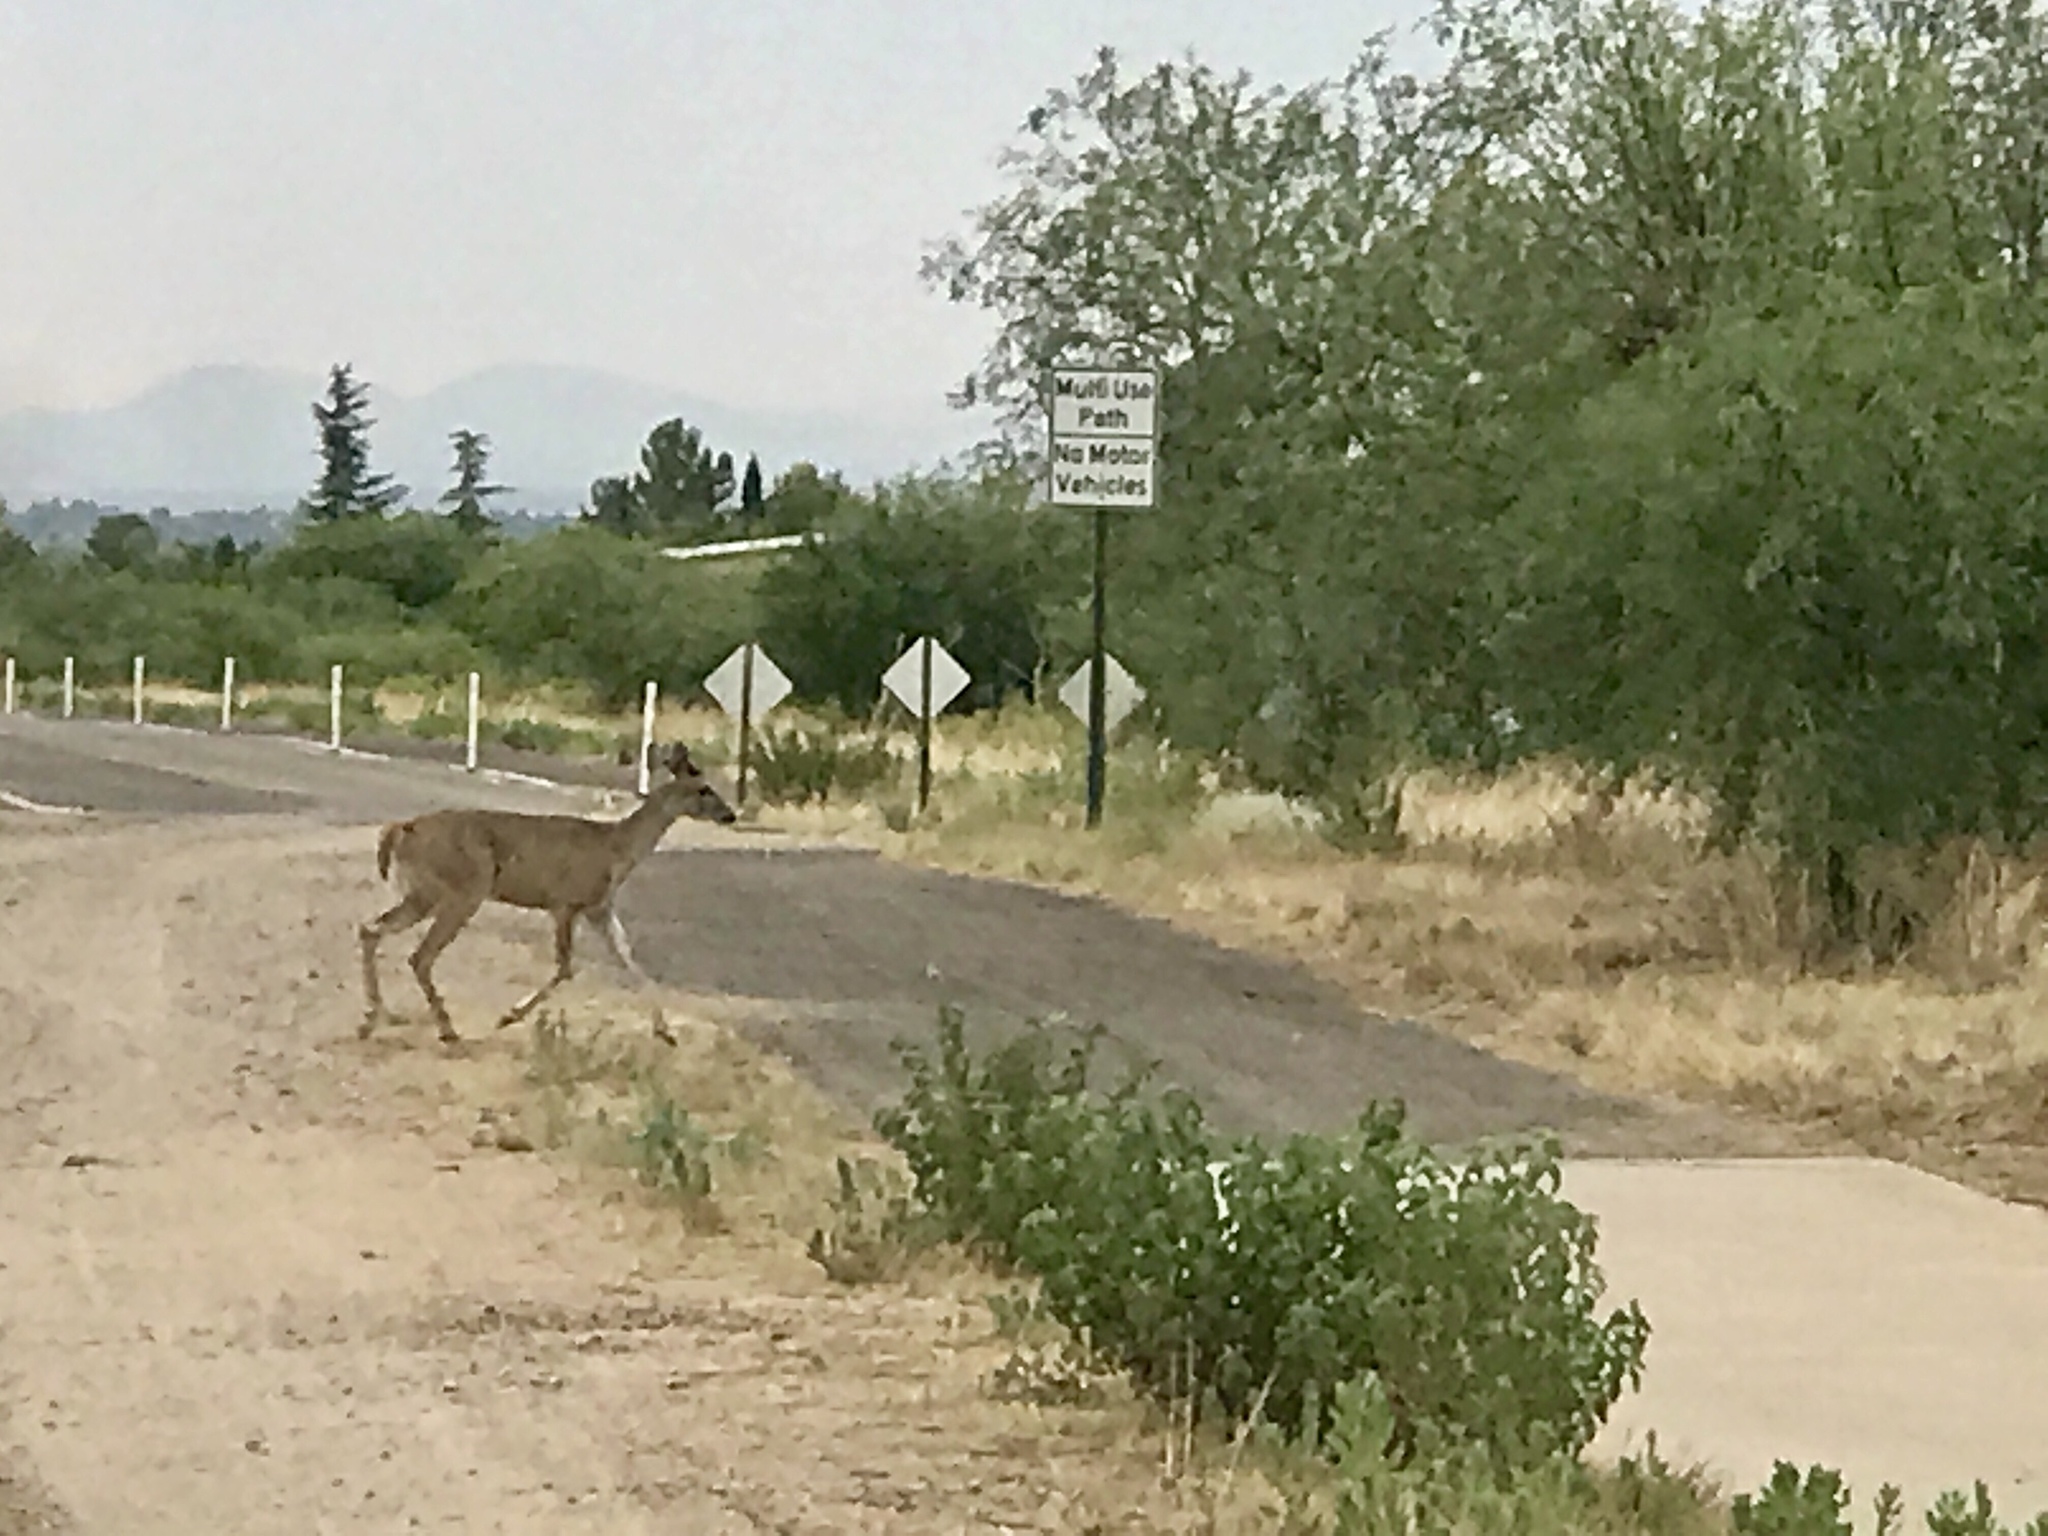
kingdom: Animalia
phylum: Chordata
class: Mammalia
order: Artiodactyla
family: Cervidae
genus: Odocoileus
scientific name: Odocoileus virginianus
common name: White-tailed deer
